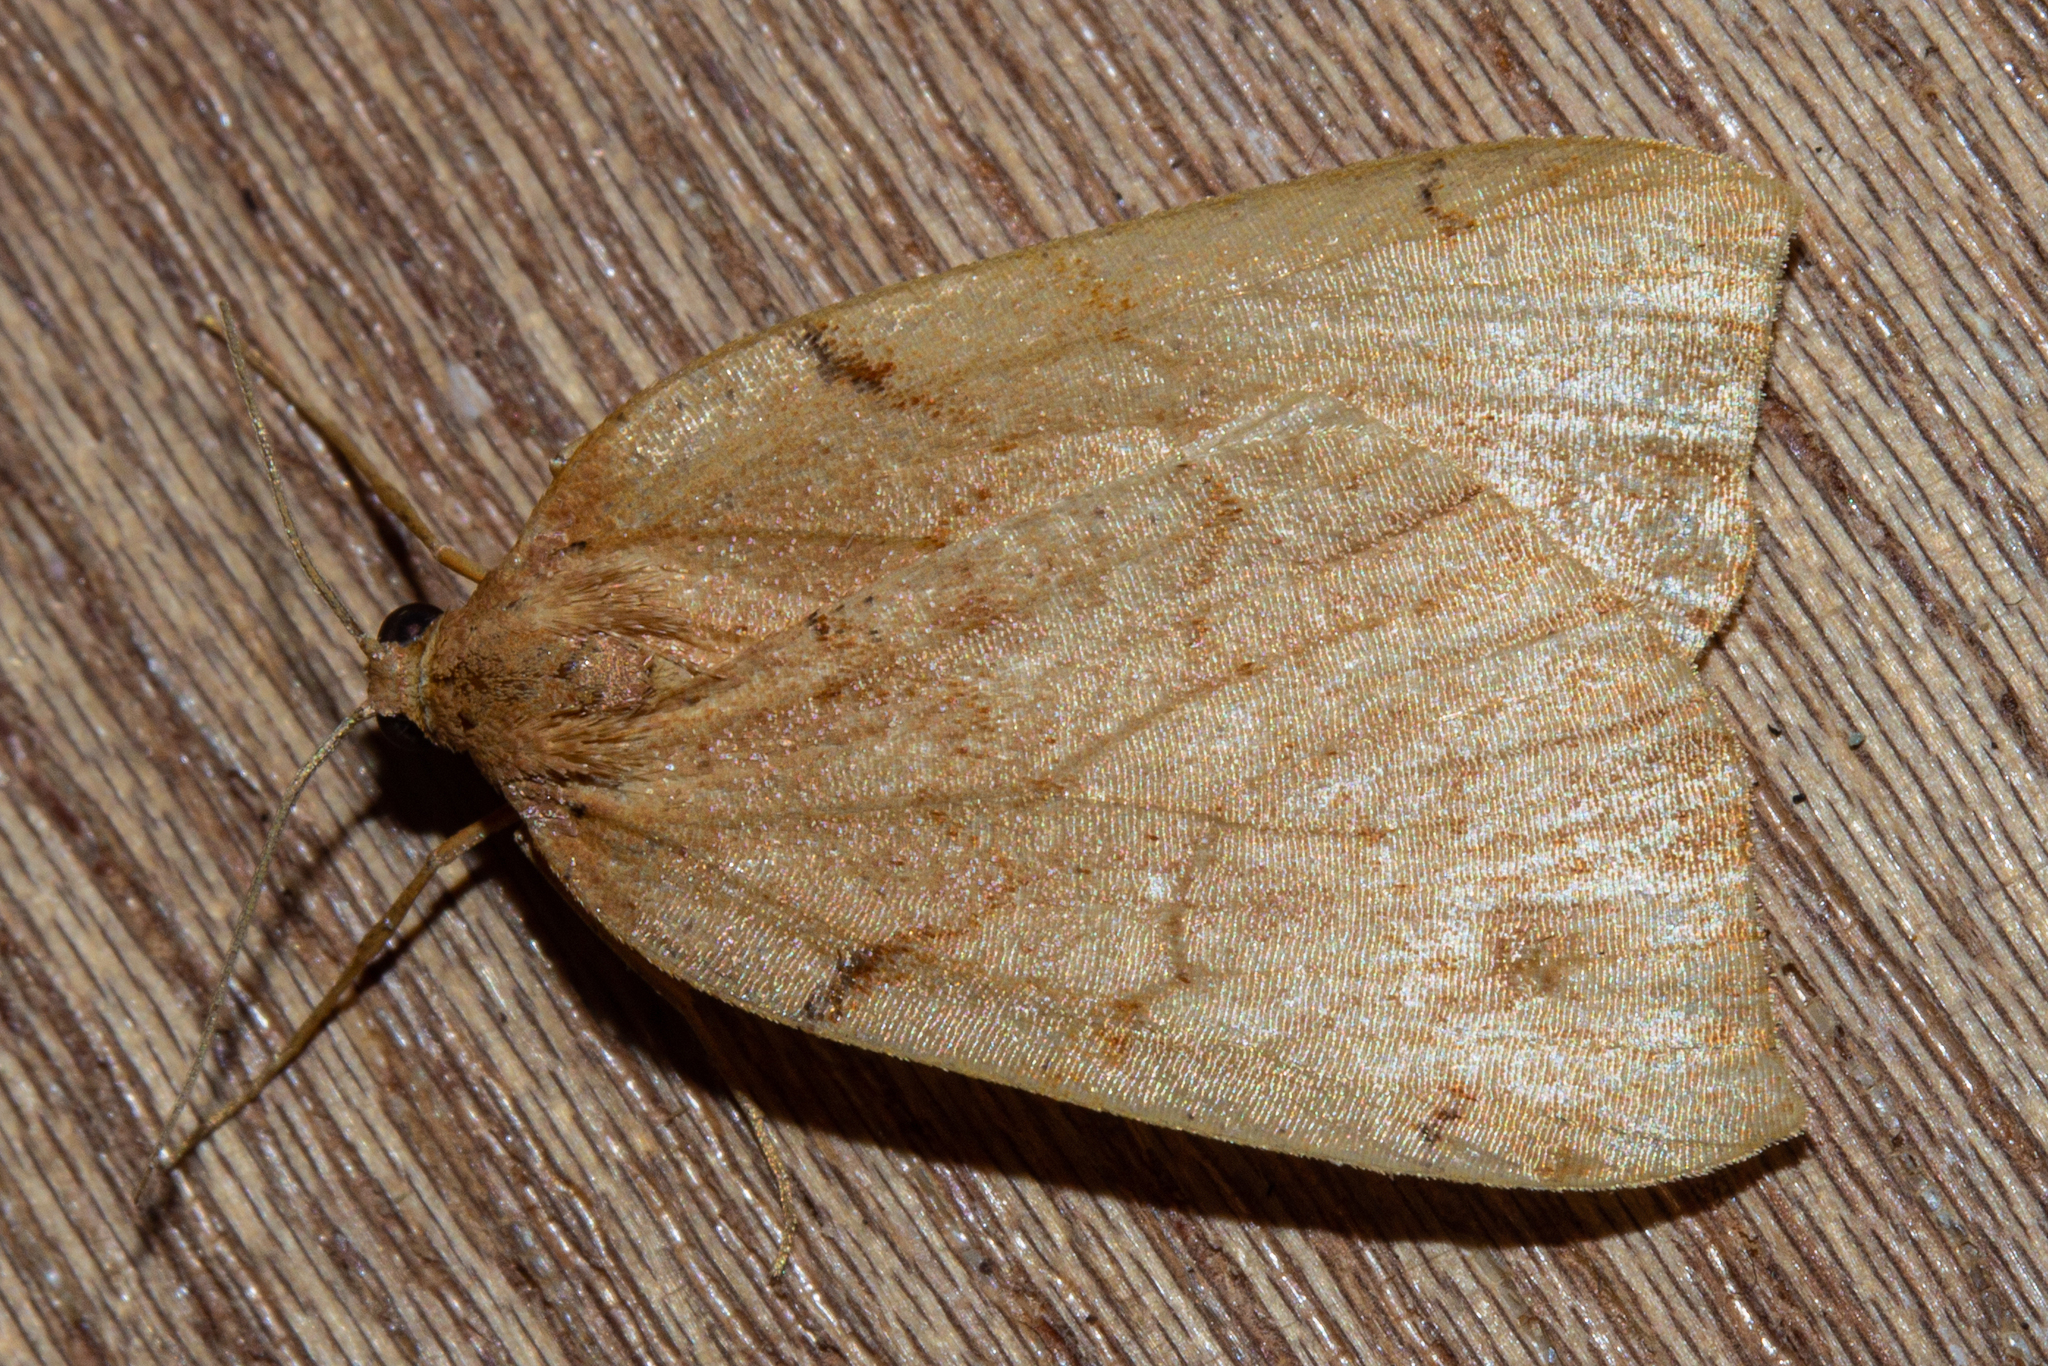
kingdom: Animalia
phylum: Arthropoda
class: Insecta
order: Lepidoptera
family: Geometridae
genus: Sestra
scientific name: Sestra humeraria
